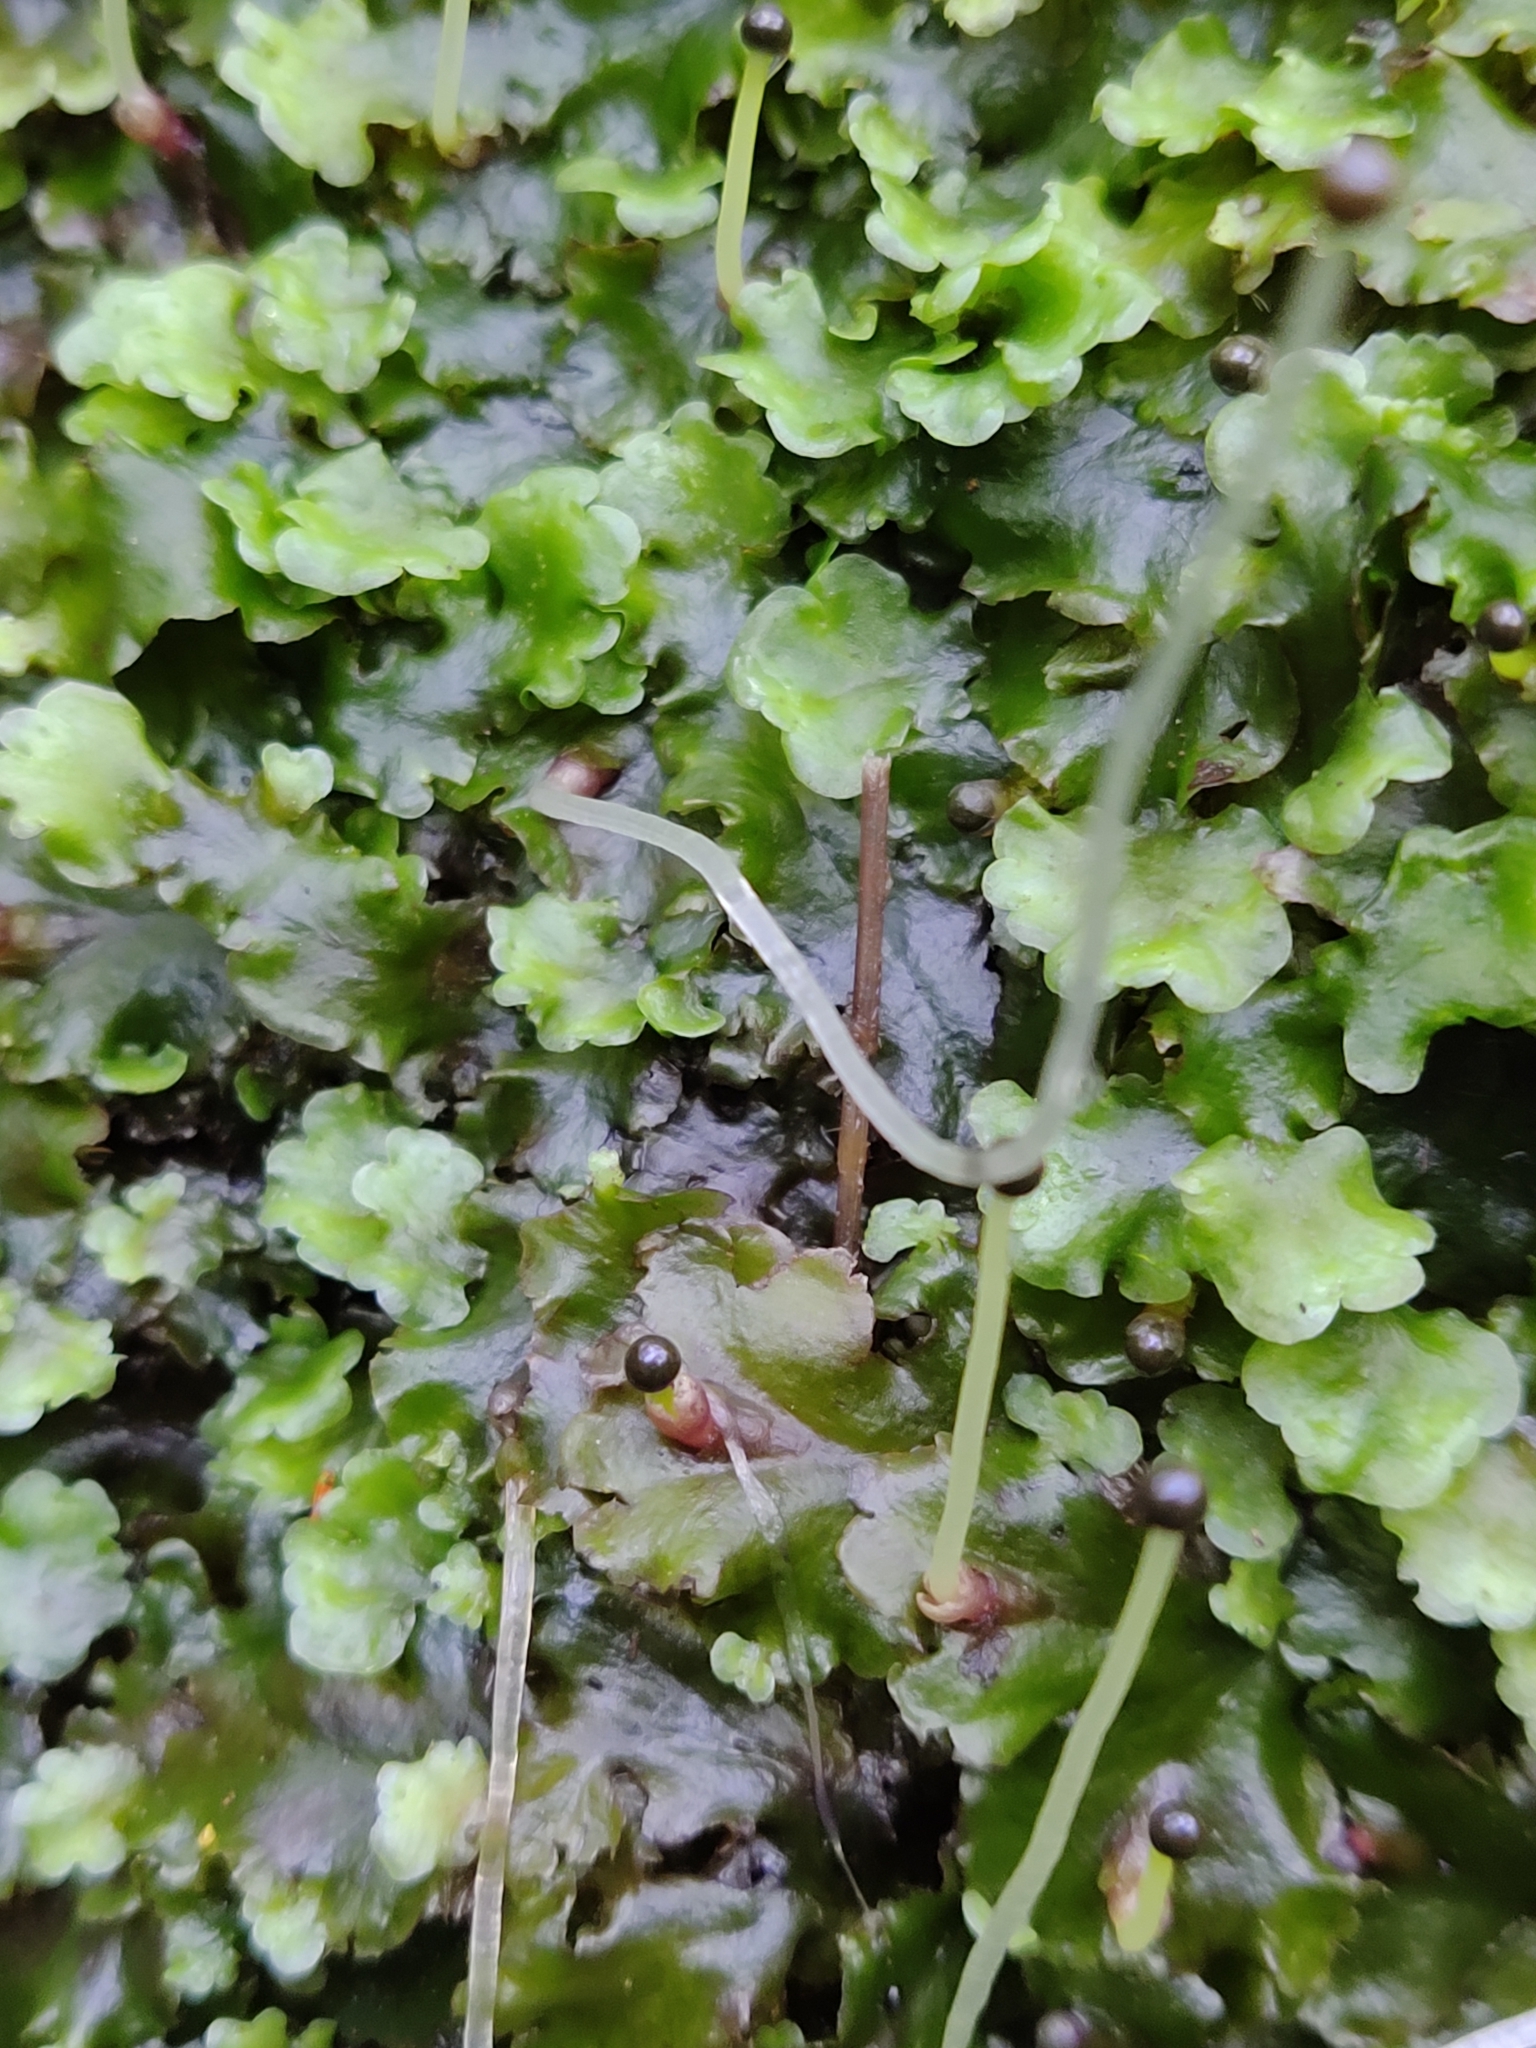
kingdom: Plantae
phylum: Marchantiophyta
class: Jungermanniopsida
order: Pelliales
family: Pelliaceae
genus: Pellia
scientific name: Pellia epiphylla
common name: Common pellia
